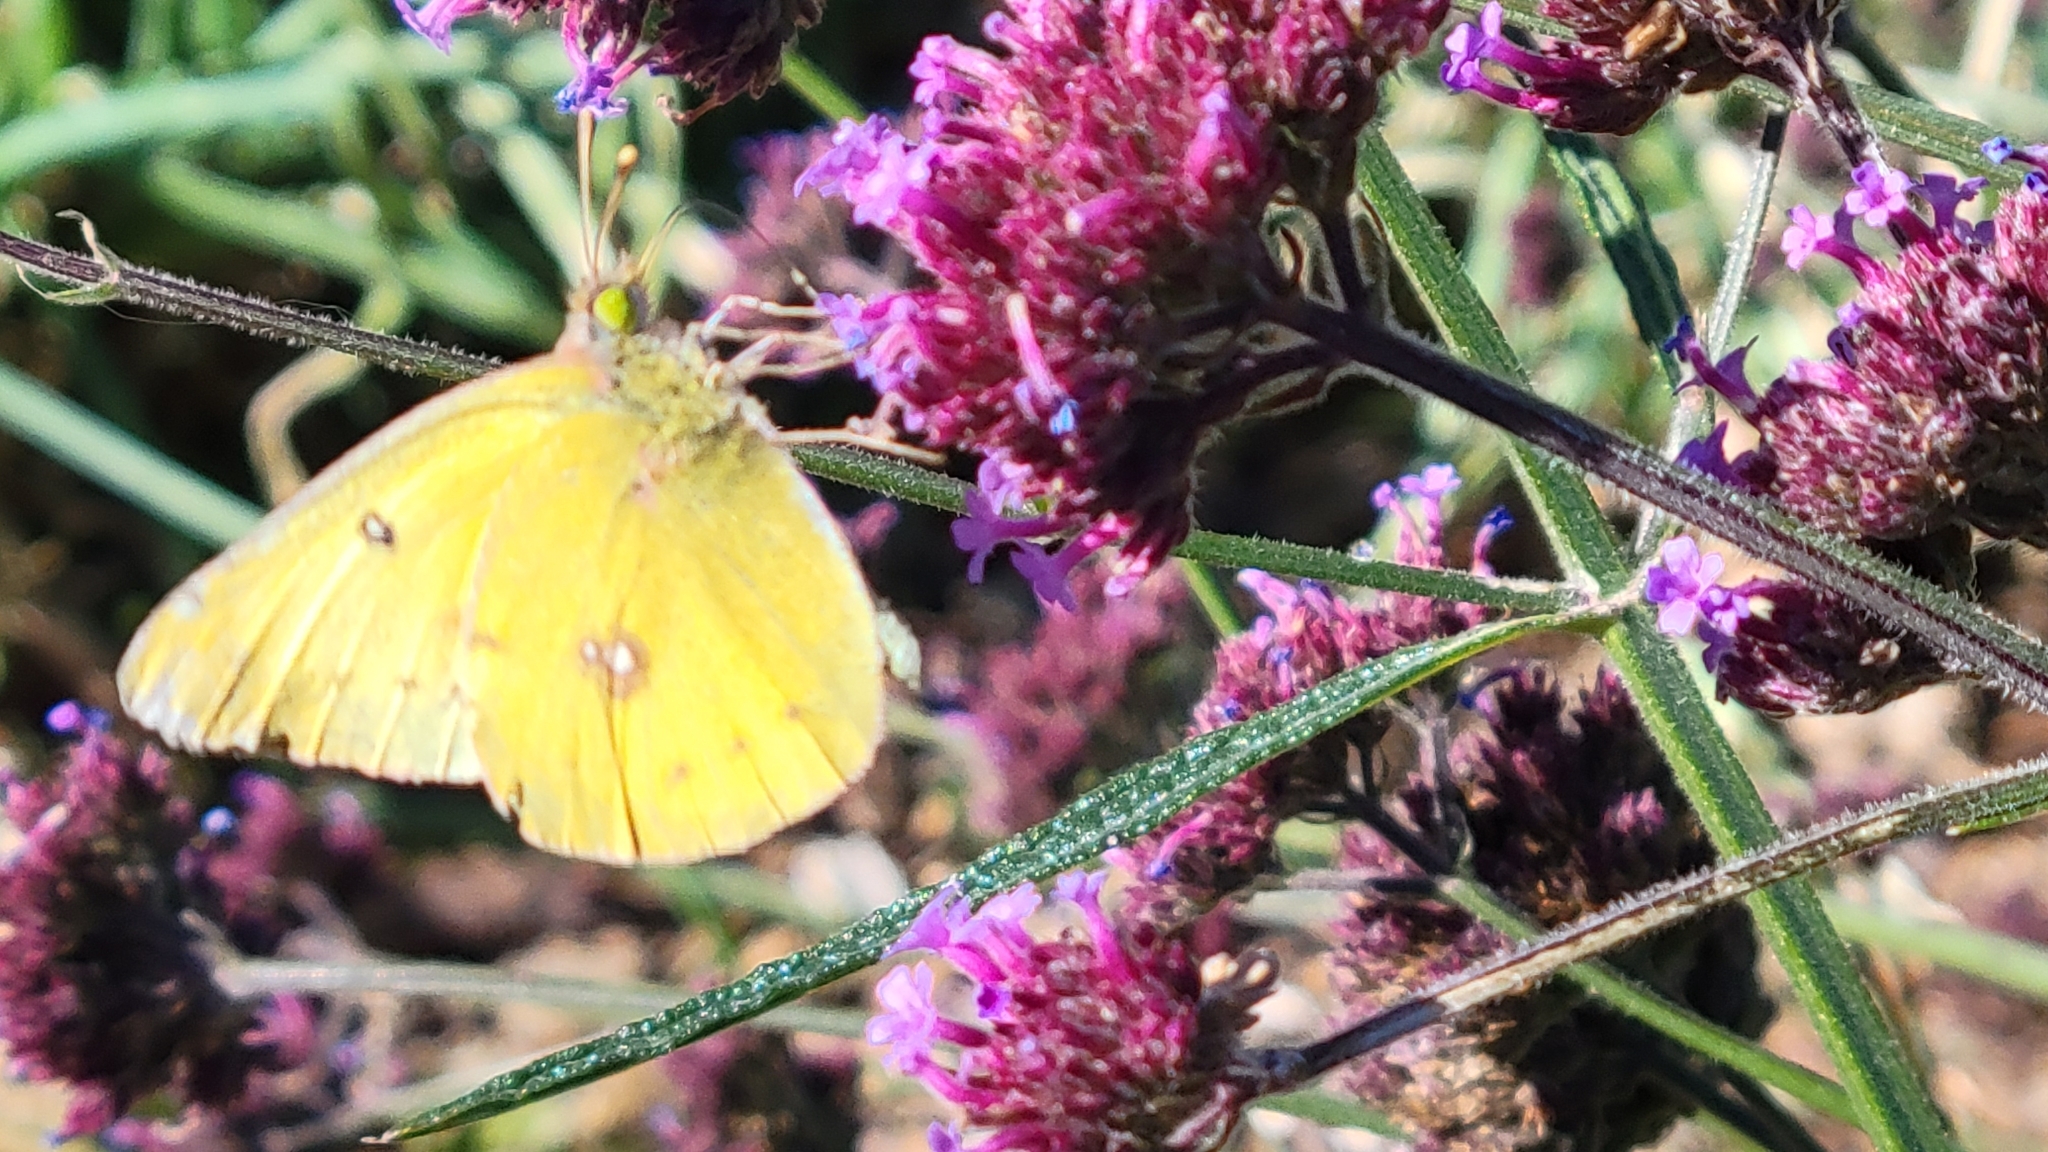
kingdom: Animalia
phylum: Arthropoda
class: Insecta
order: Lepidoptera
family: Pieridae
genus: Colias
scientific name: Colias eurytheme
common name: Alfalfa butterfly
